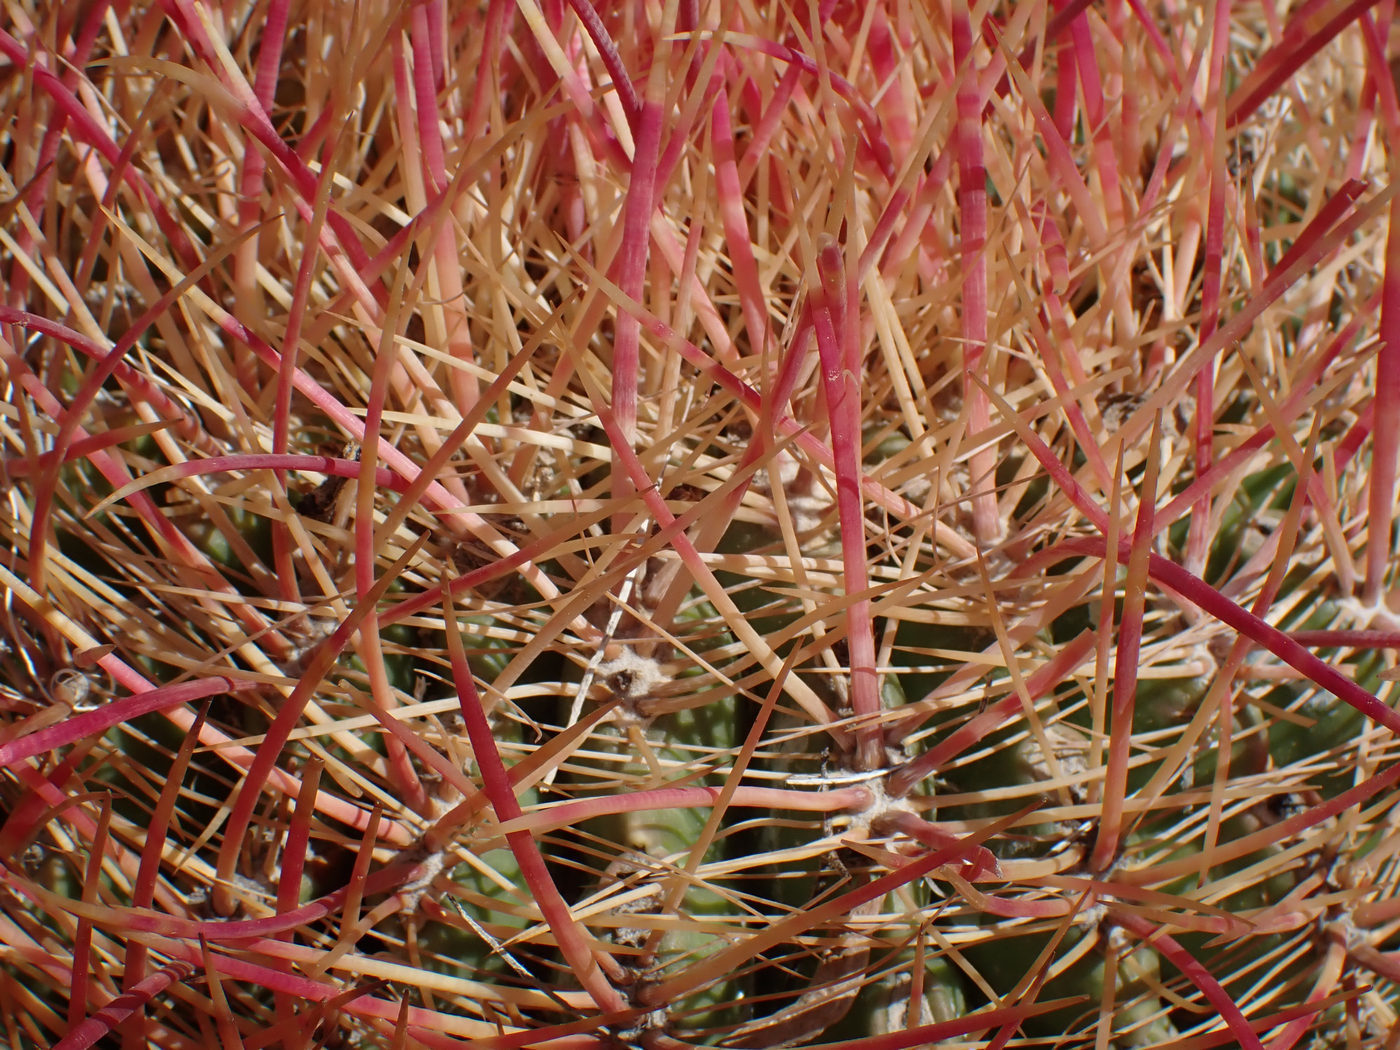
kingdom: Plantae
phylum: Tracheophyta
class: Magnoliopsida
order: Caryophyllales
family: Cactaceae
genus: Ferocactus
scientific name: Ferocactus cylindraceus
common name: California barrel cactus
